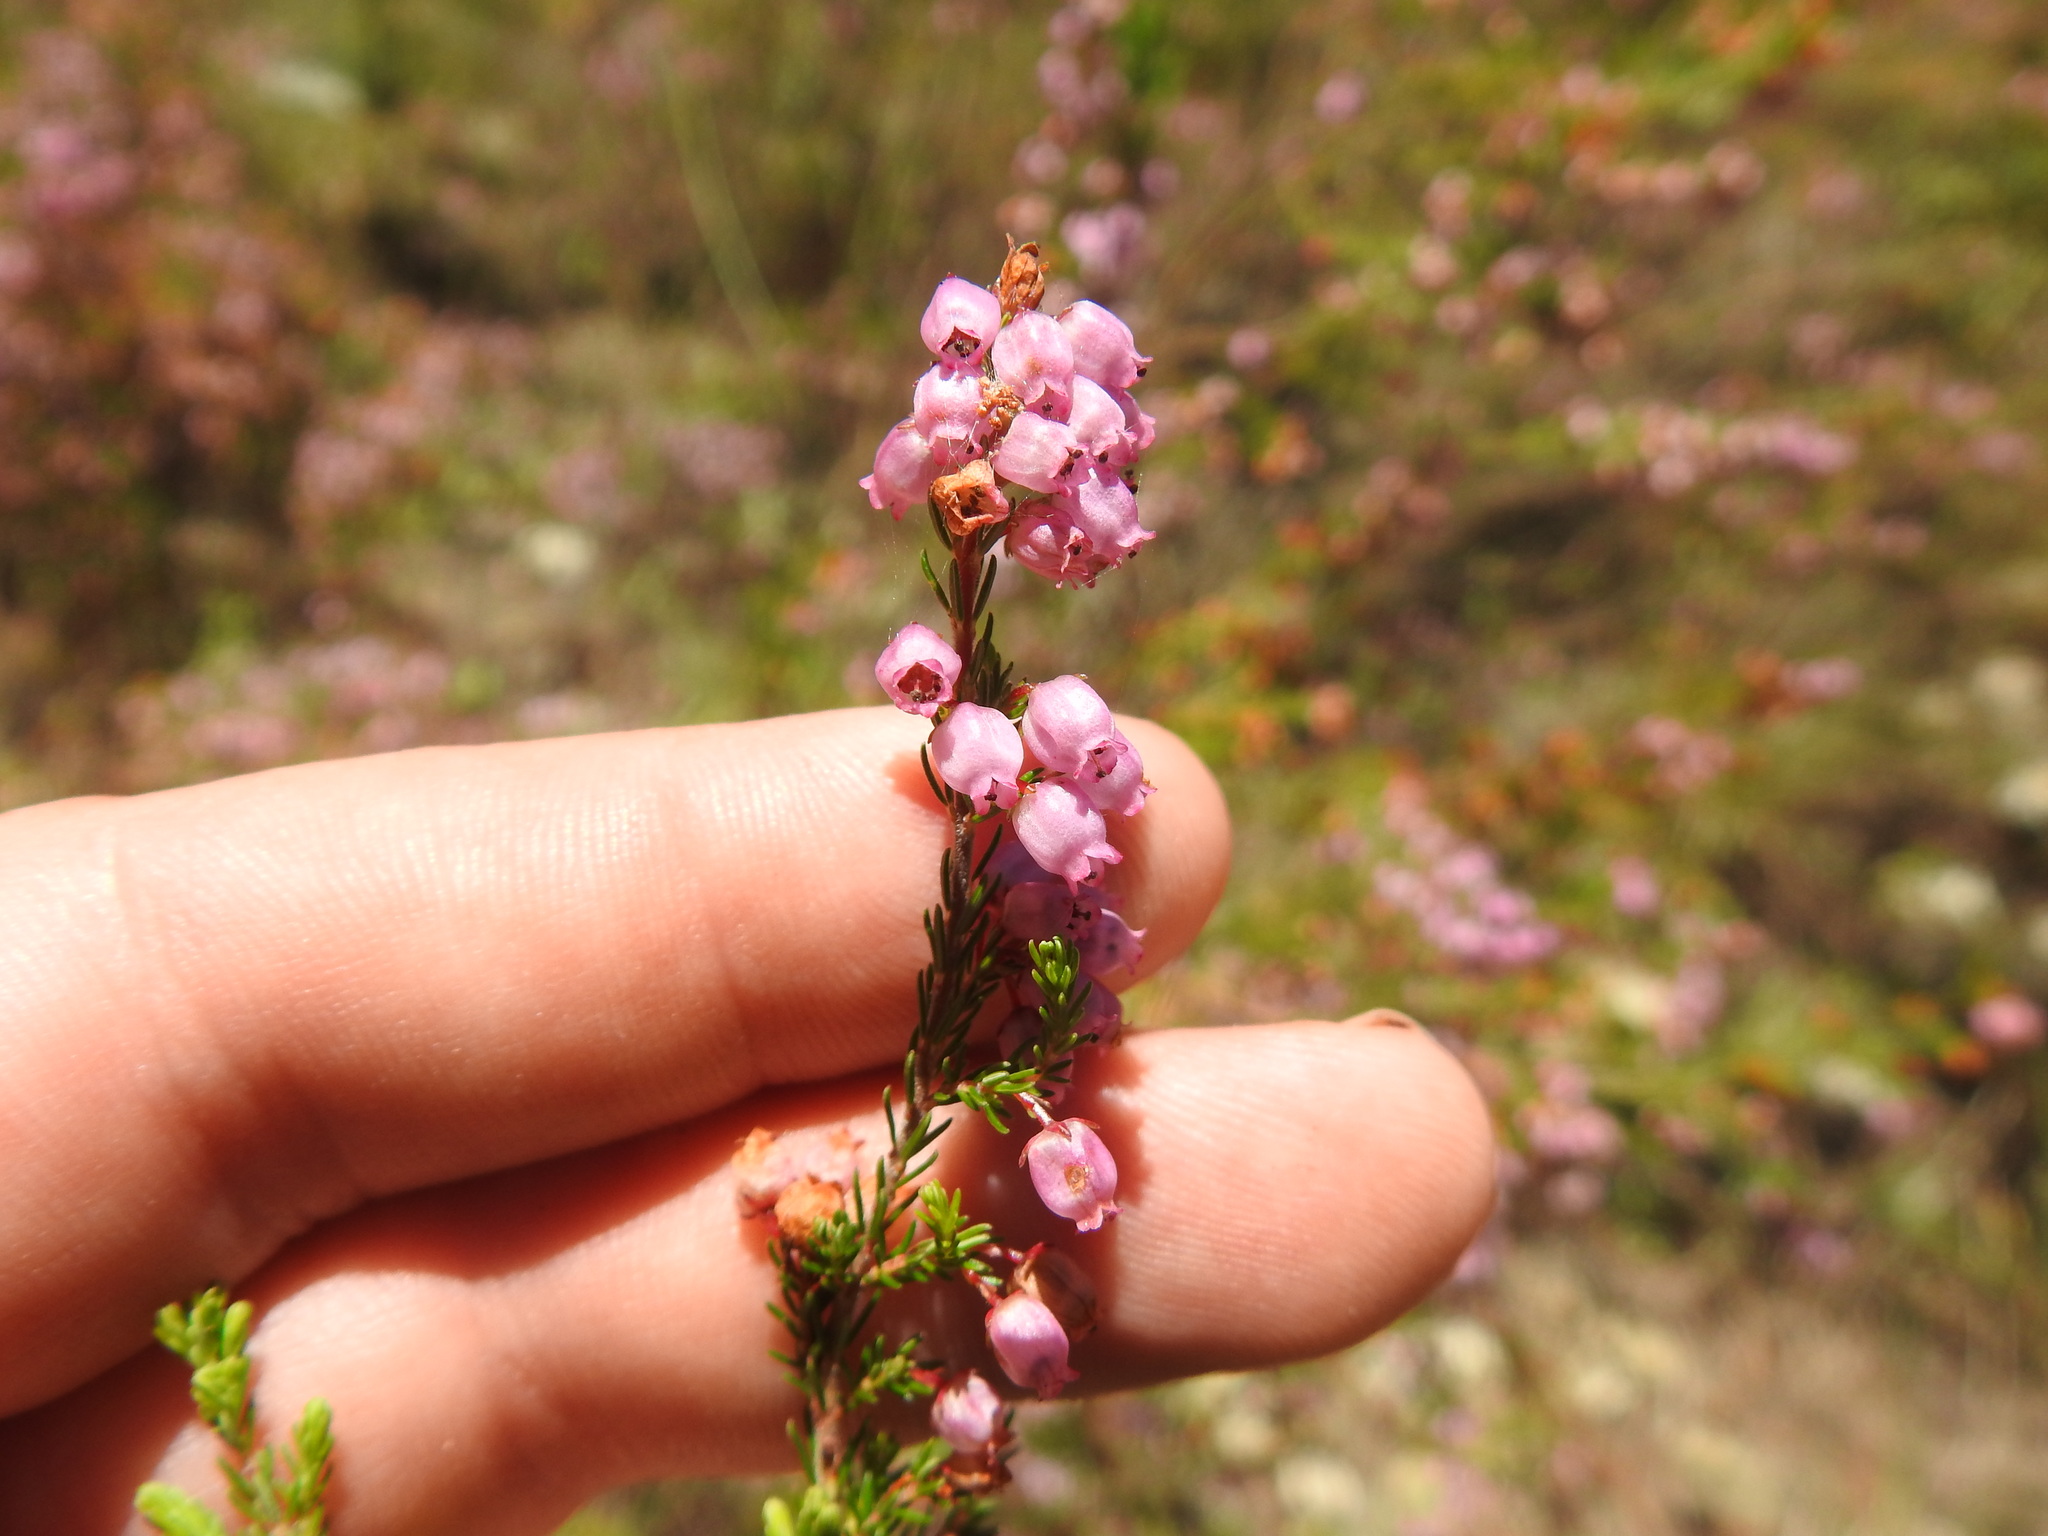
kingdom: Plantae
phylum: Tracheophyta
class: Magnoliopsida
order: Ericales
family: Ericaceae
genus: Erica
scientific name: Erica gracilis
